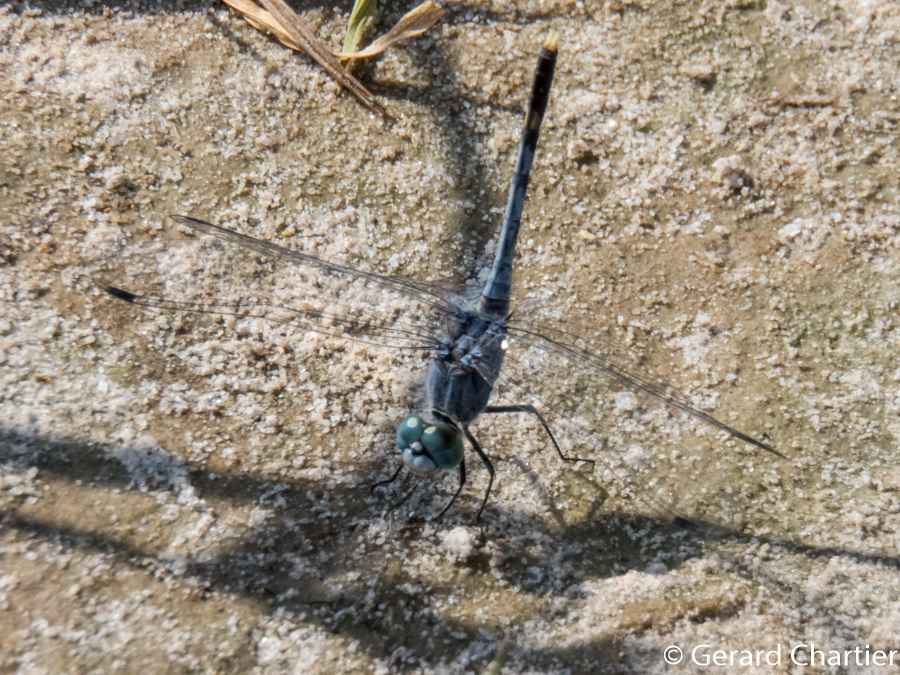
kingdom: Animalia
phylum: Arthropoda
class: Insecta
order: Odonata
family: Libellulidae
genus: Diplacodes
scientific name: Diplacodes trivialis
